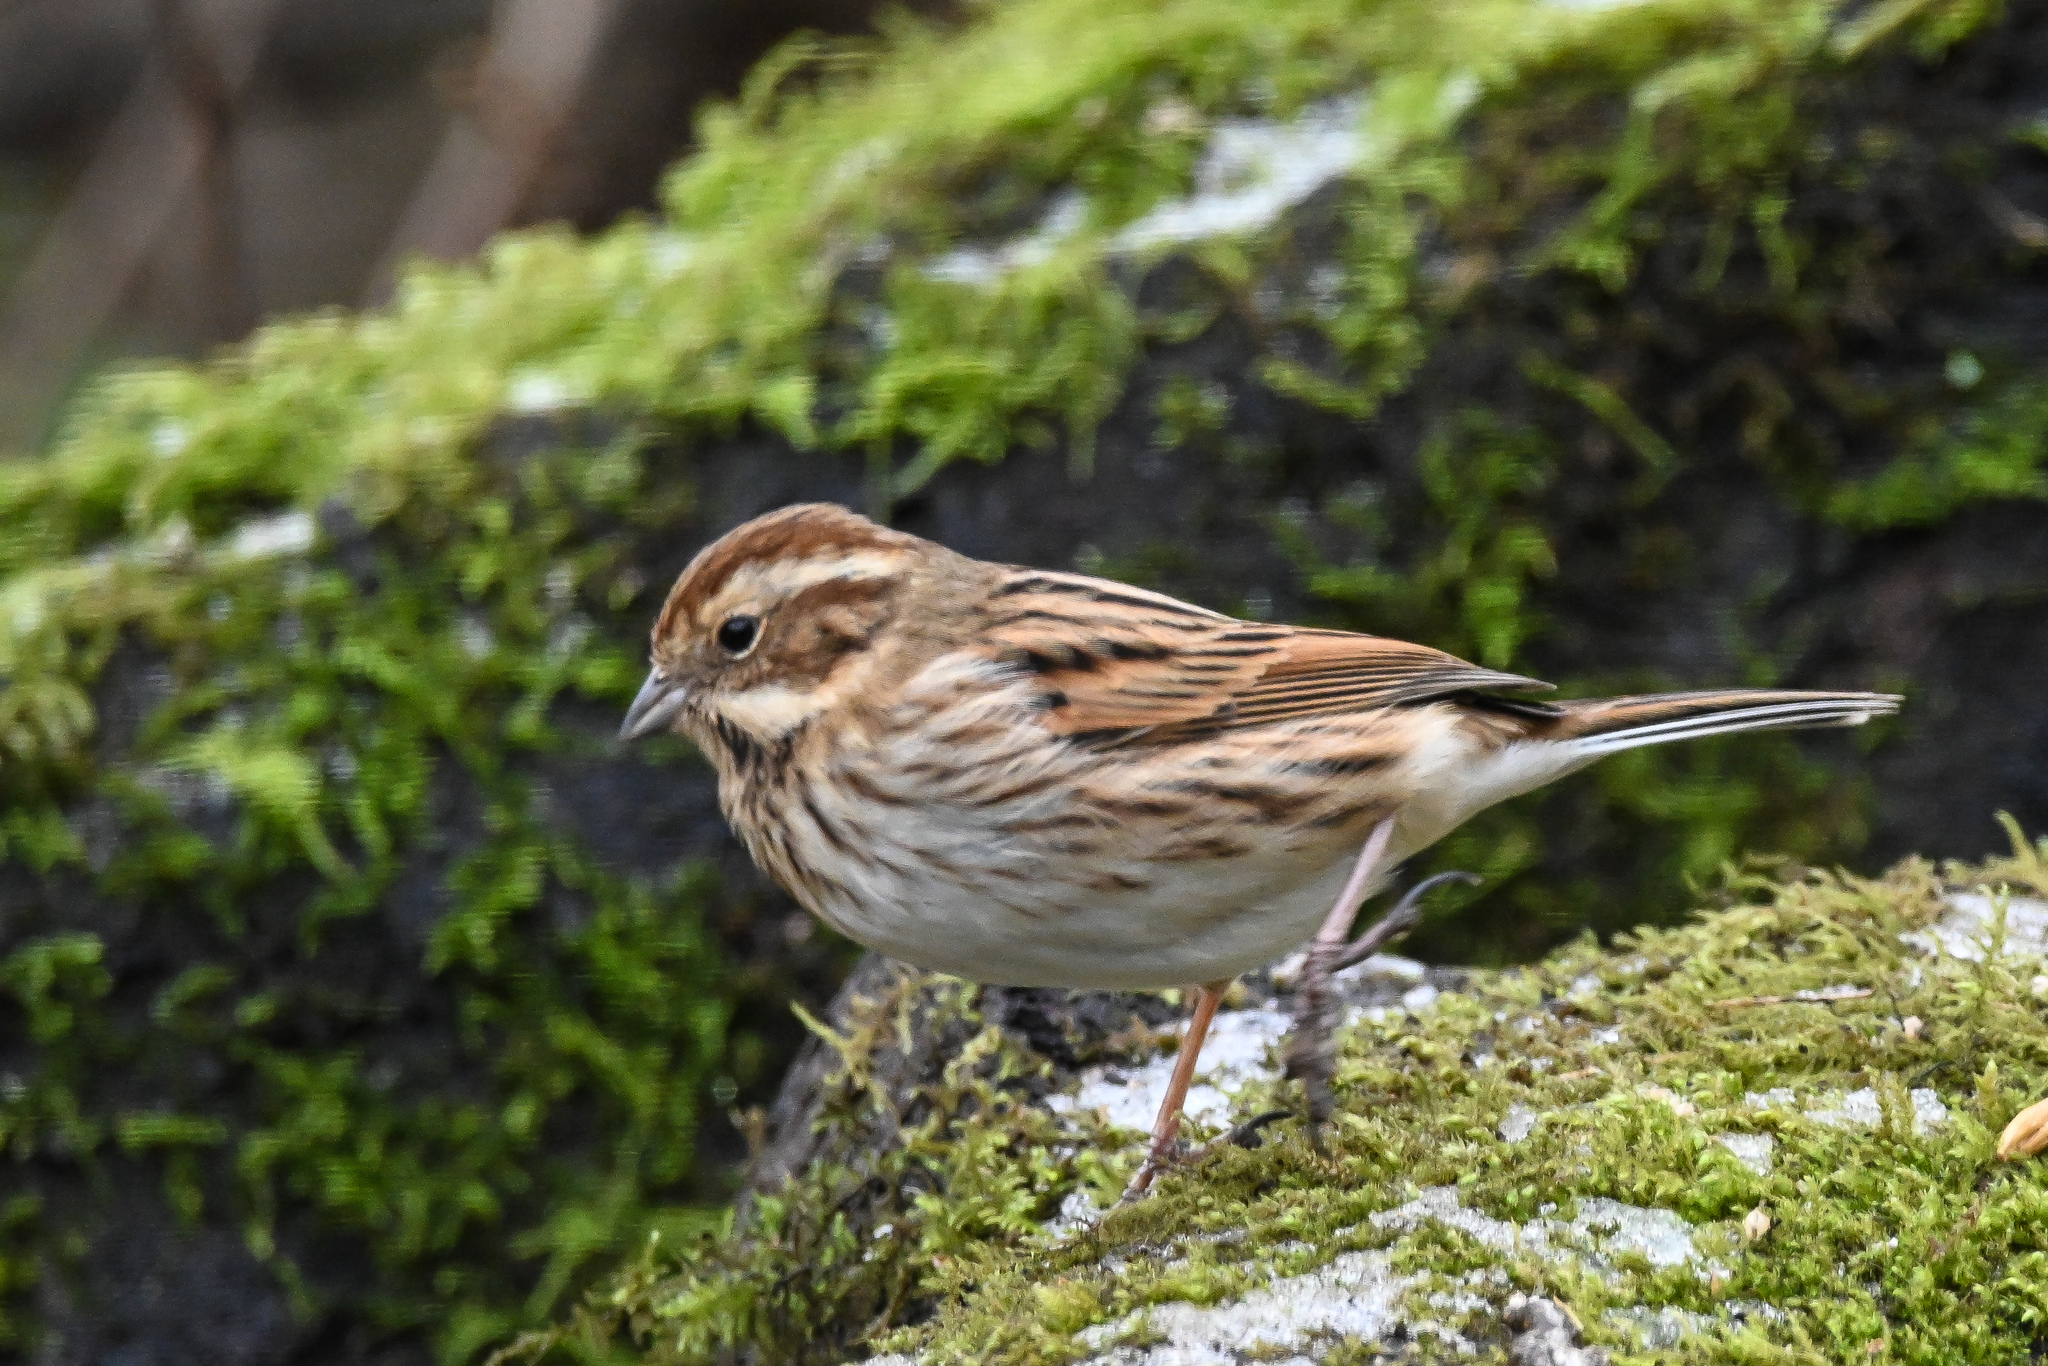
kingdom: Animalia
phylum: Chordata
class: Aves
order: Passeriformes
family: Emberizidae
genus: Emberiza
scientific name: Emberiza schoeniclus
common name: Reed bunting
